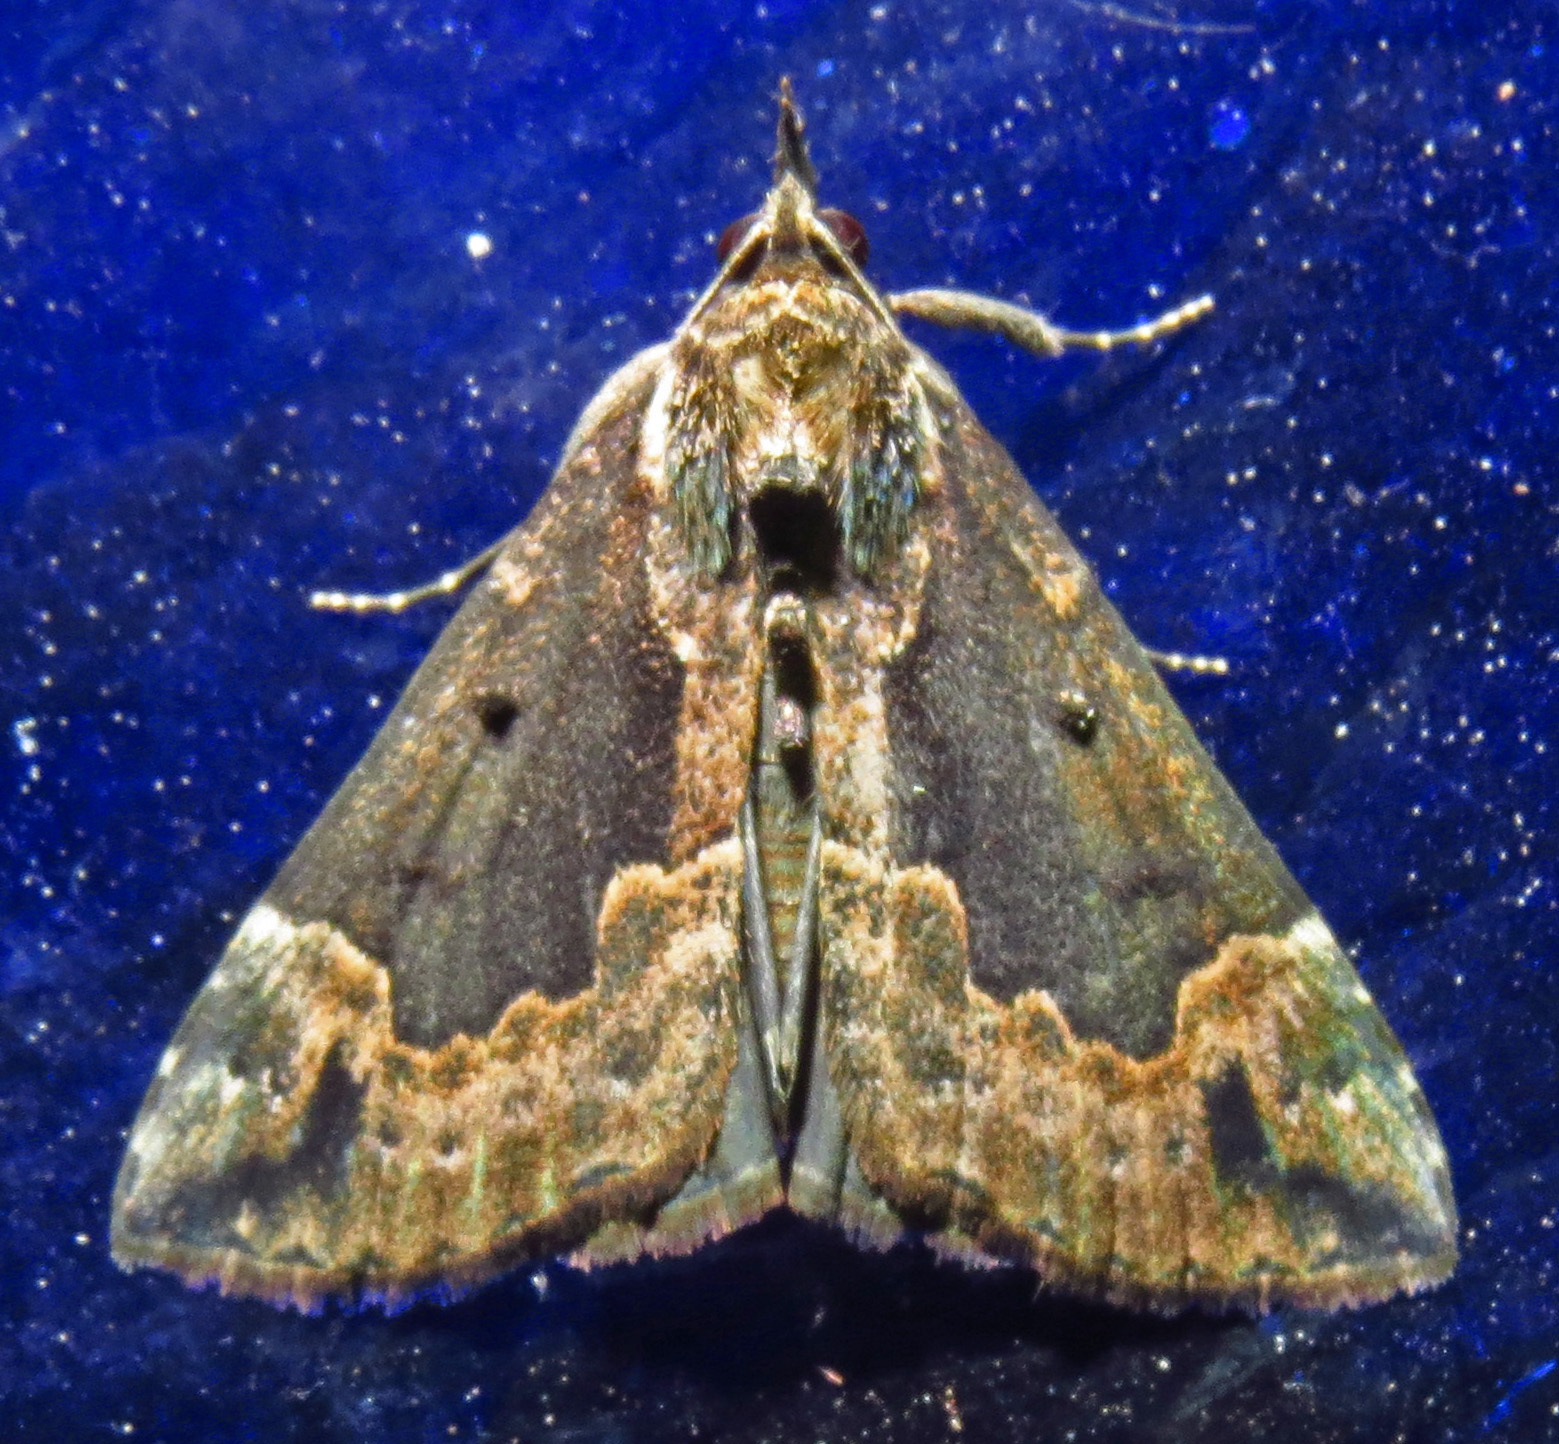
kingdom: Animalia
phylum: Arthropoda
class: Insecta
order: Lepidoptera
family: Erebidae
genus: Hypena
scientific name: Hypena baltimoralis
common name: Baltimore snout
